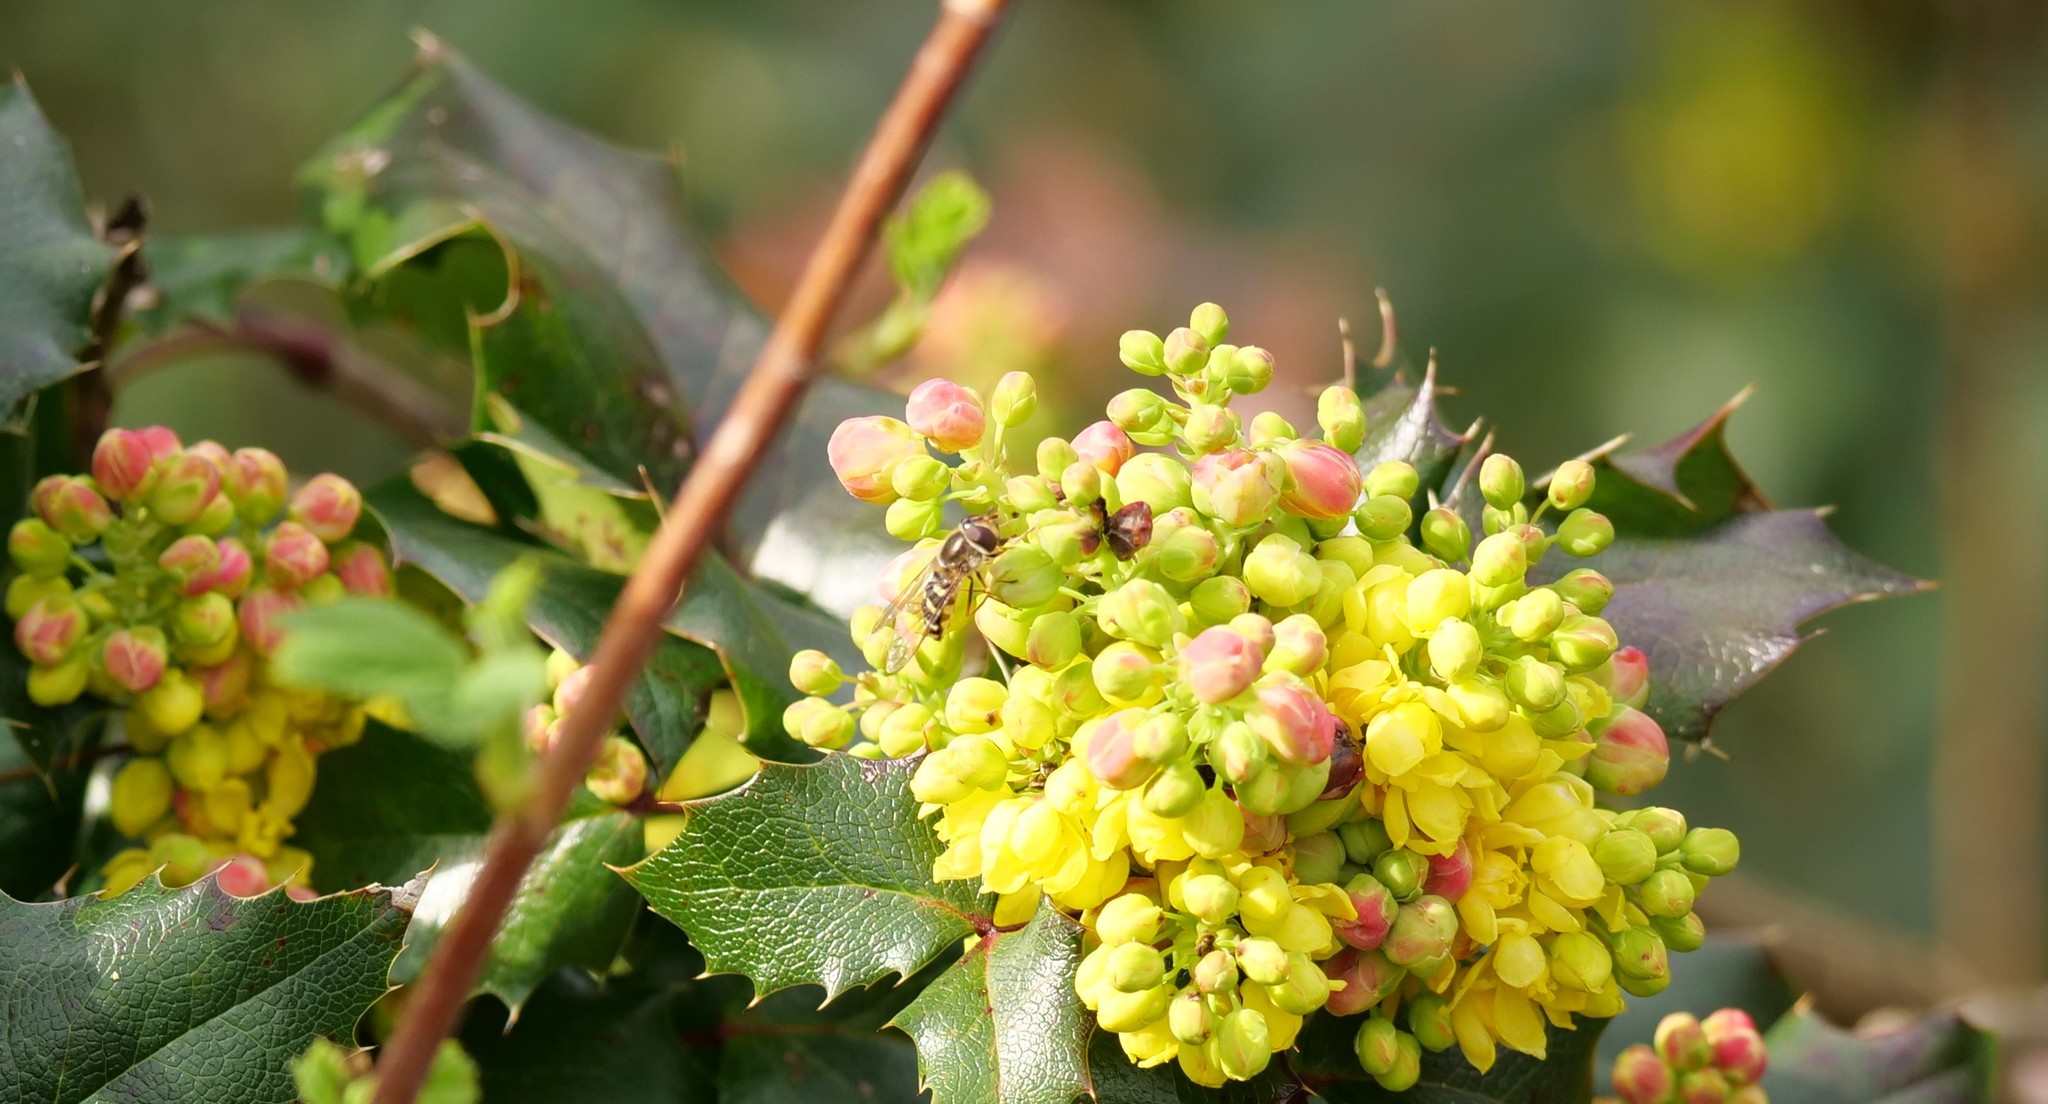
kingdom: Animalia
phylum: Arthropoda
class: Insecta
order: Diptera
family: Syrphidae
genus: Lapposyrphus
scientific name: Lapposyrphus lapponicus
